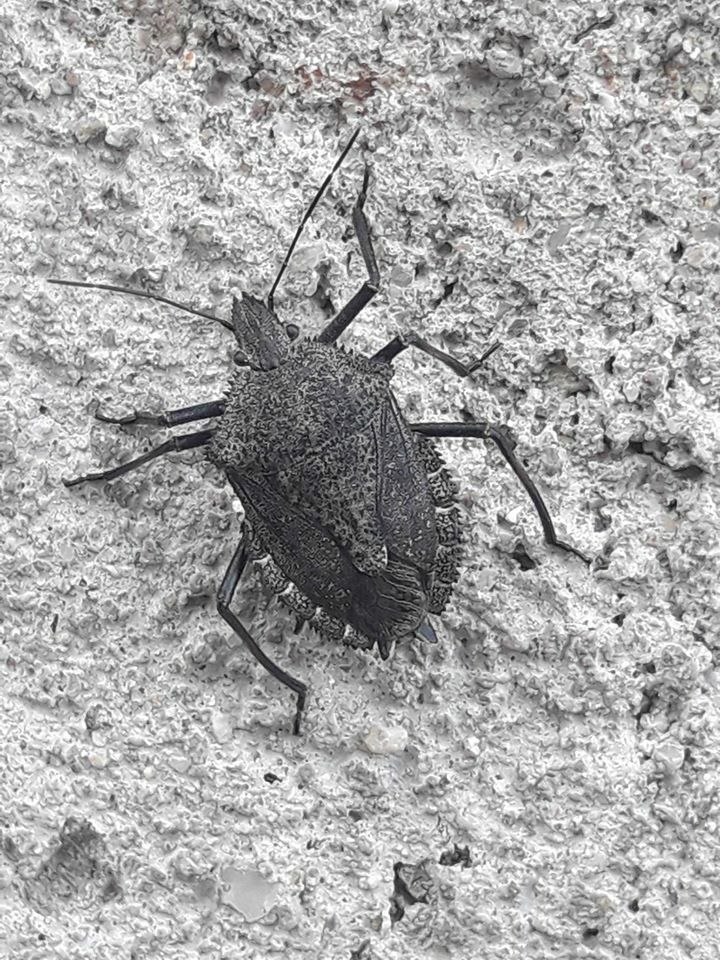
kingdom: Animalia
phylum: Arthropoda
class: Insecta
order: Hemiptera
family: Pentatomidae
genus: Mustha
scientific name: Mustha spinosula
